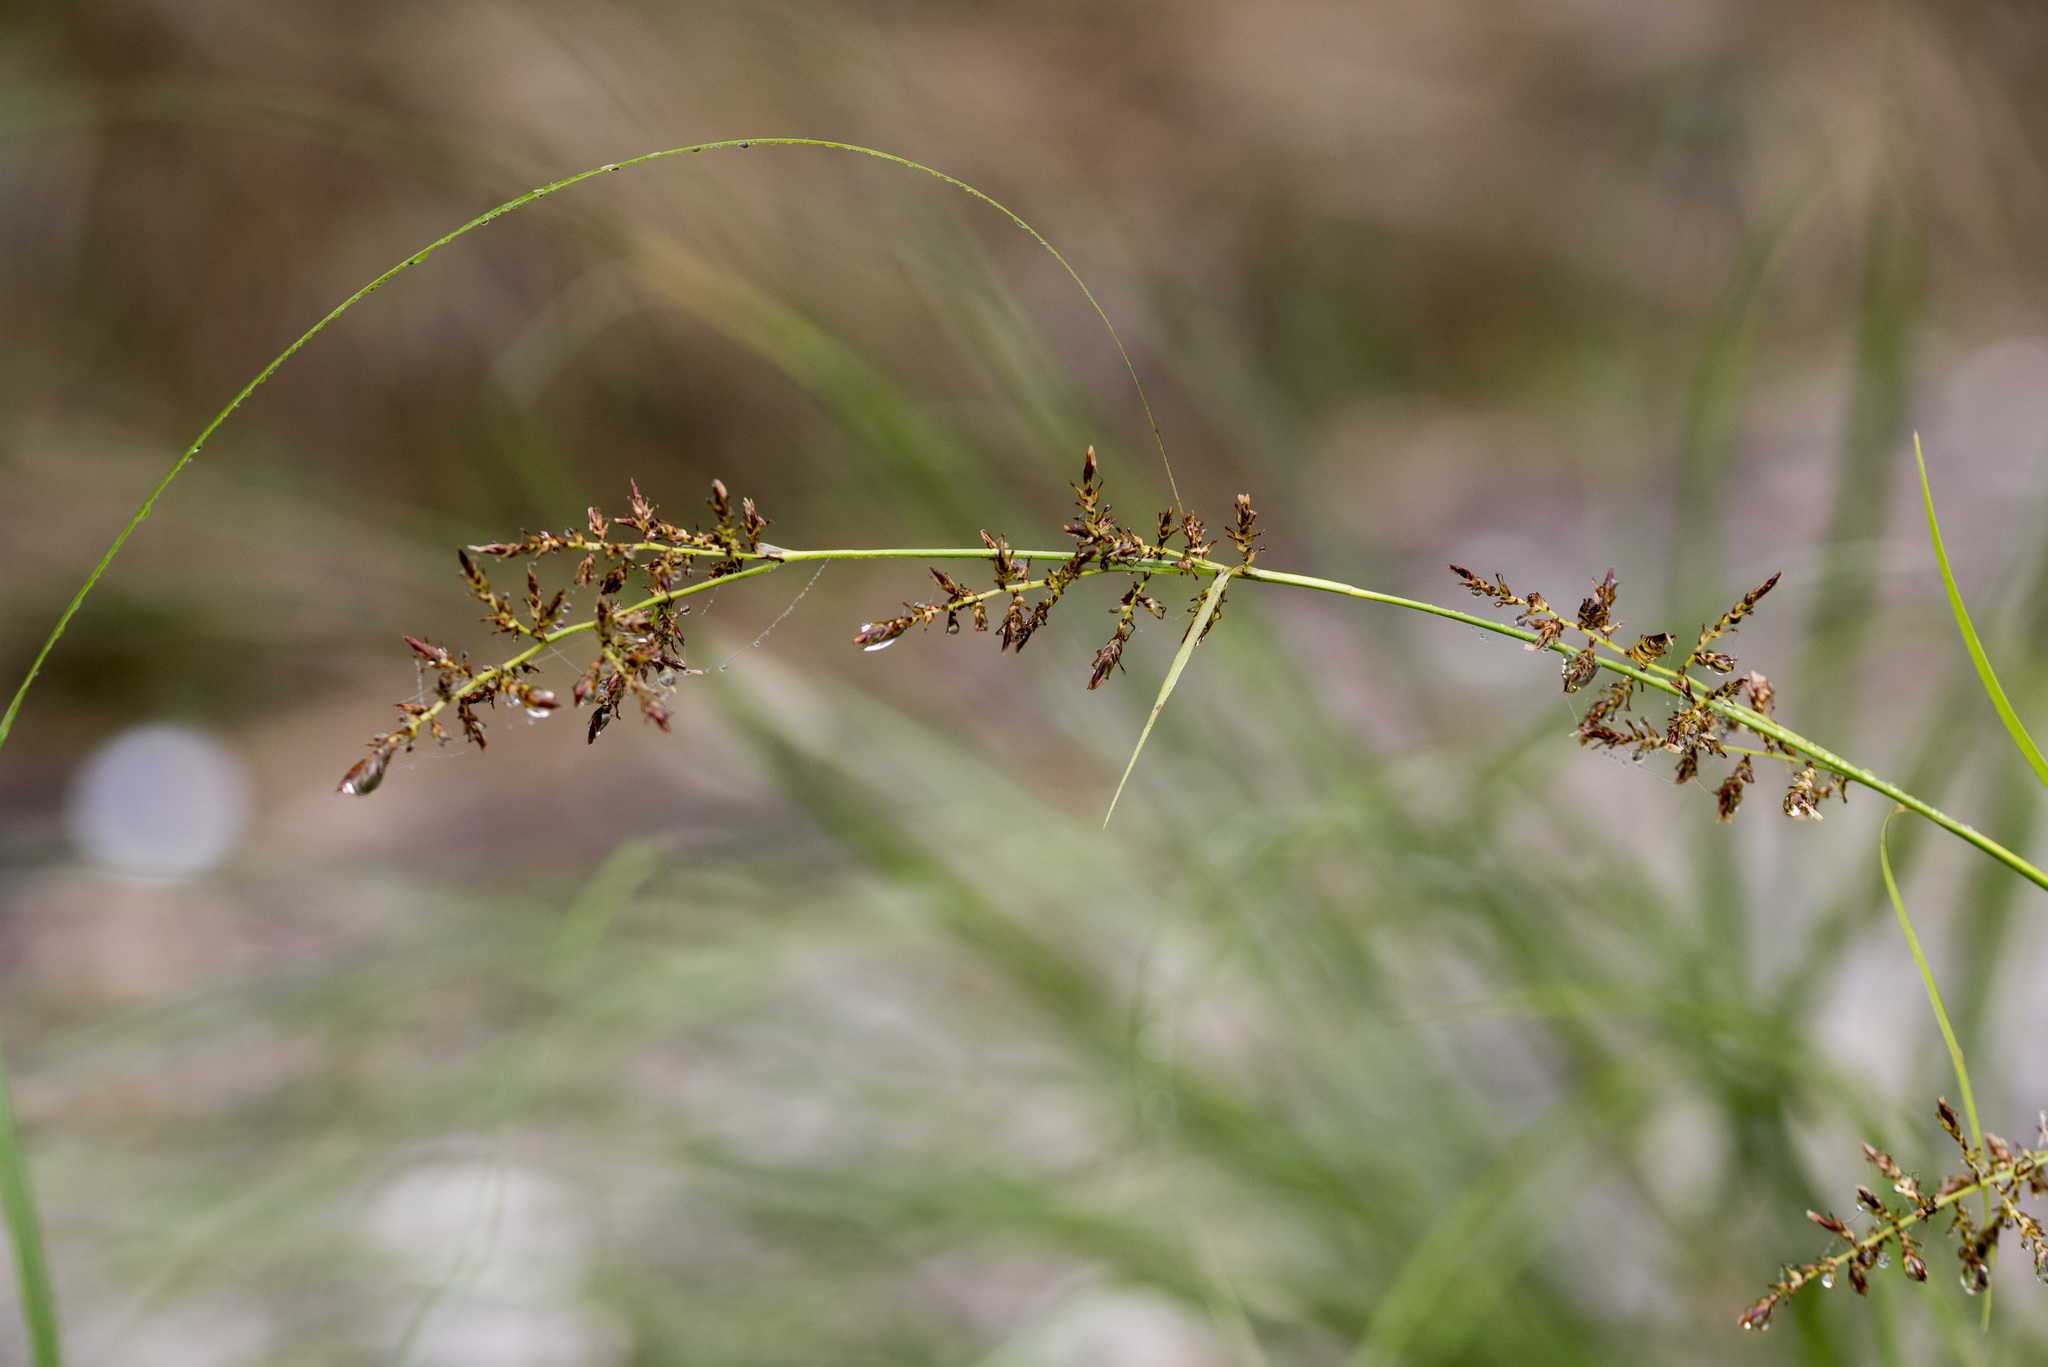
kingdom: Plantae
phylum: Tracheophyta
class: Liliopsida
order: Poales
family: Cyperaceae
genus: Carex
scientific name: Carex filicina
